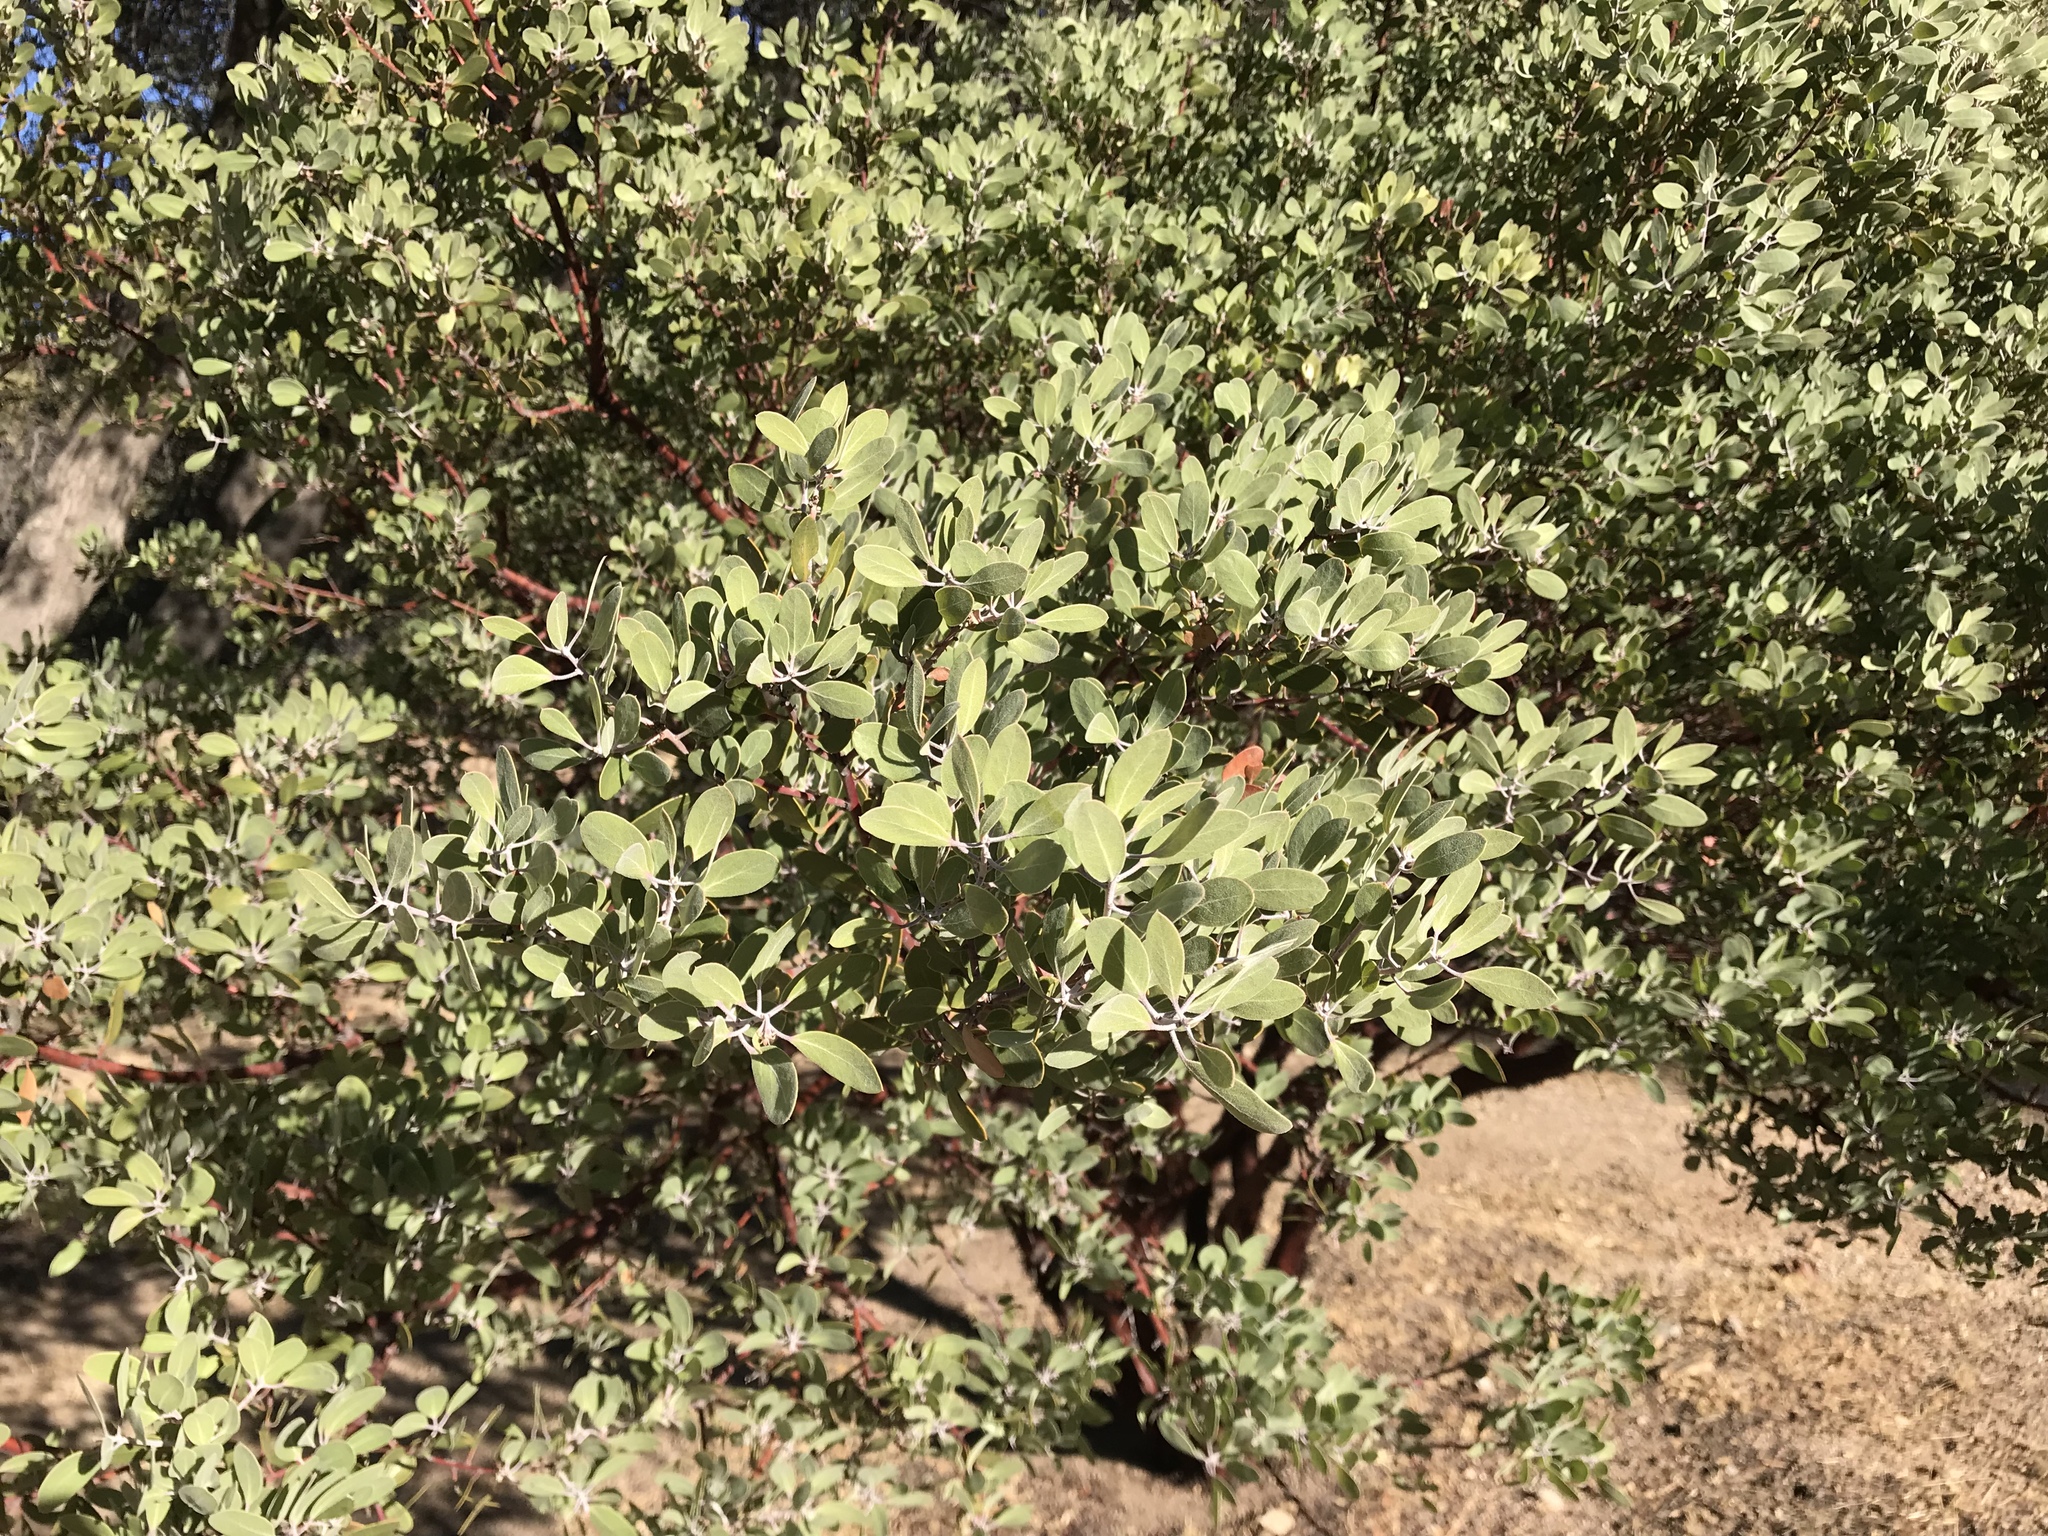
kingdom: Plantae
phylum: Tracheophyta
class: Magnoliopsida
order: Ericales
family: Ericaceae
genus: Arctostaphylos
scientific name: Arctostaphylos pungens
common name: Mexican manzanita
